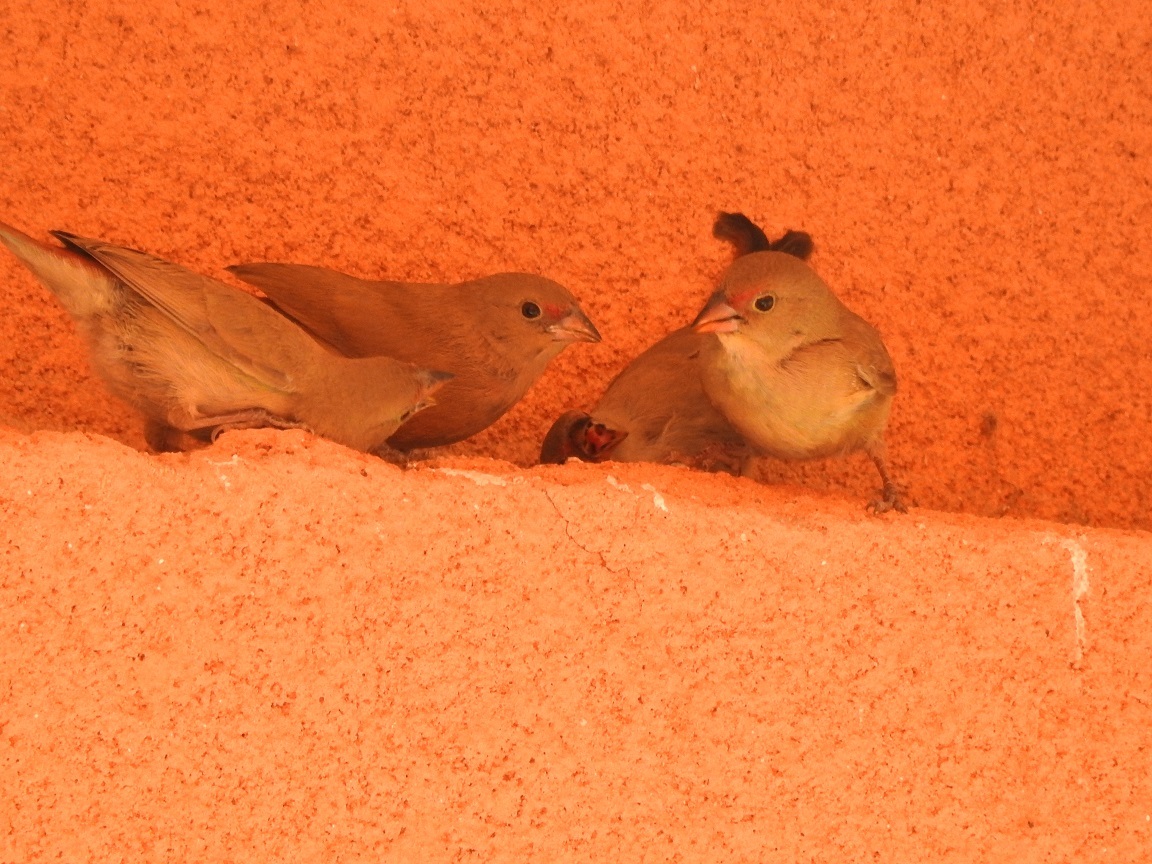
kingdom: Animalia
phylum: Chordata
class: Aves
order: Passeriformes
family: Estrildidae
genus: Lagonosticta
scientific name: Lagonosticta senegala
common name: Red-billed firefinch
